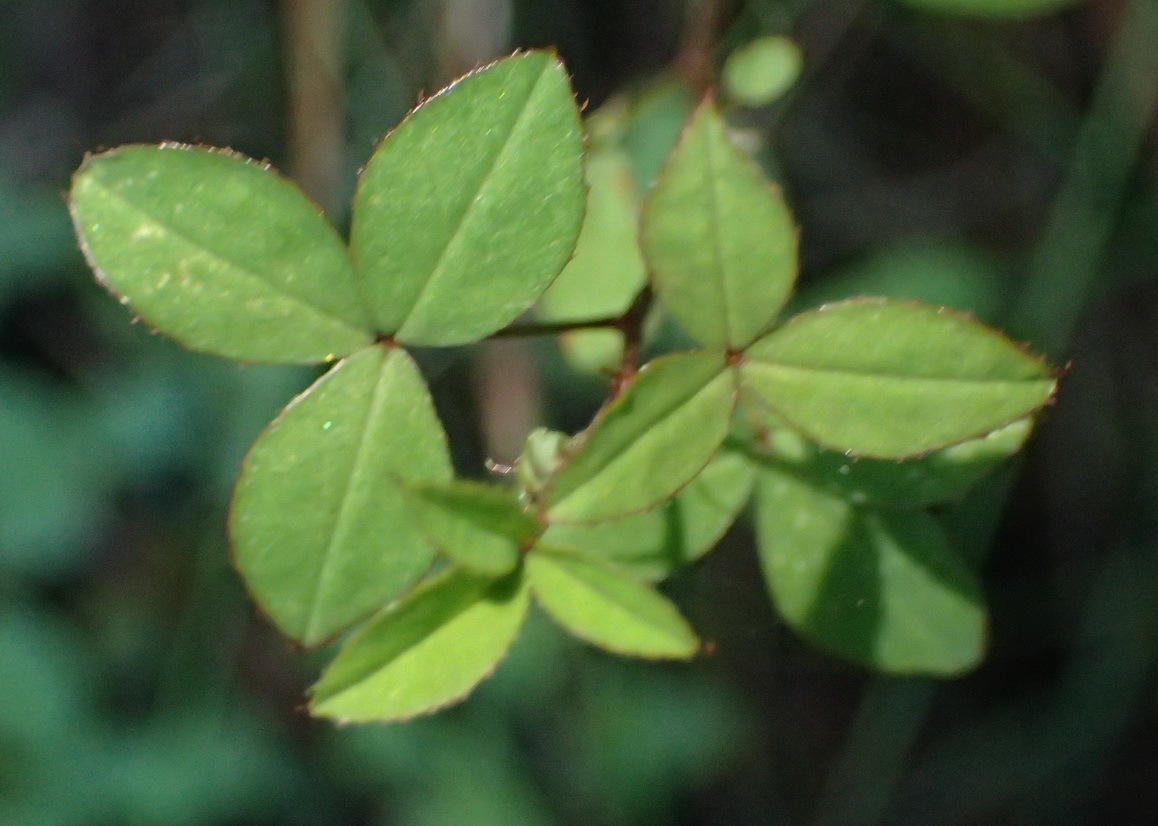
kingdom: Plantae
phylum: Tracheophyta
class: Magnoliopsida
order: Fabales
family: Fabaceae
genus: Indigofera
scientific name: Indigofera erecta
